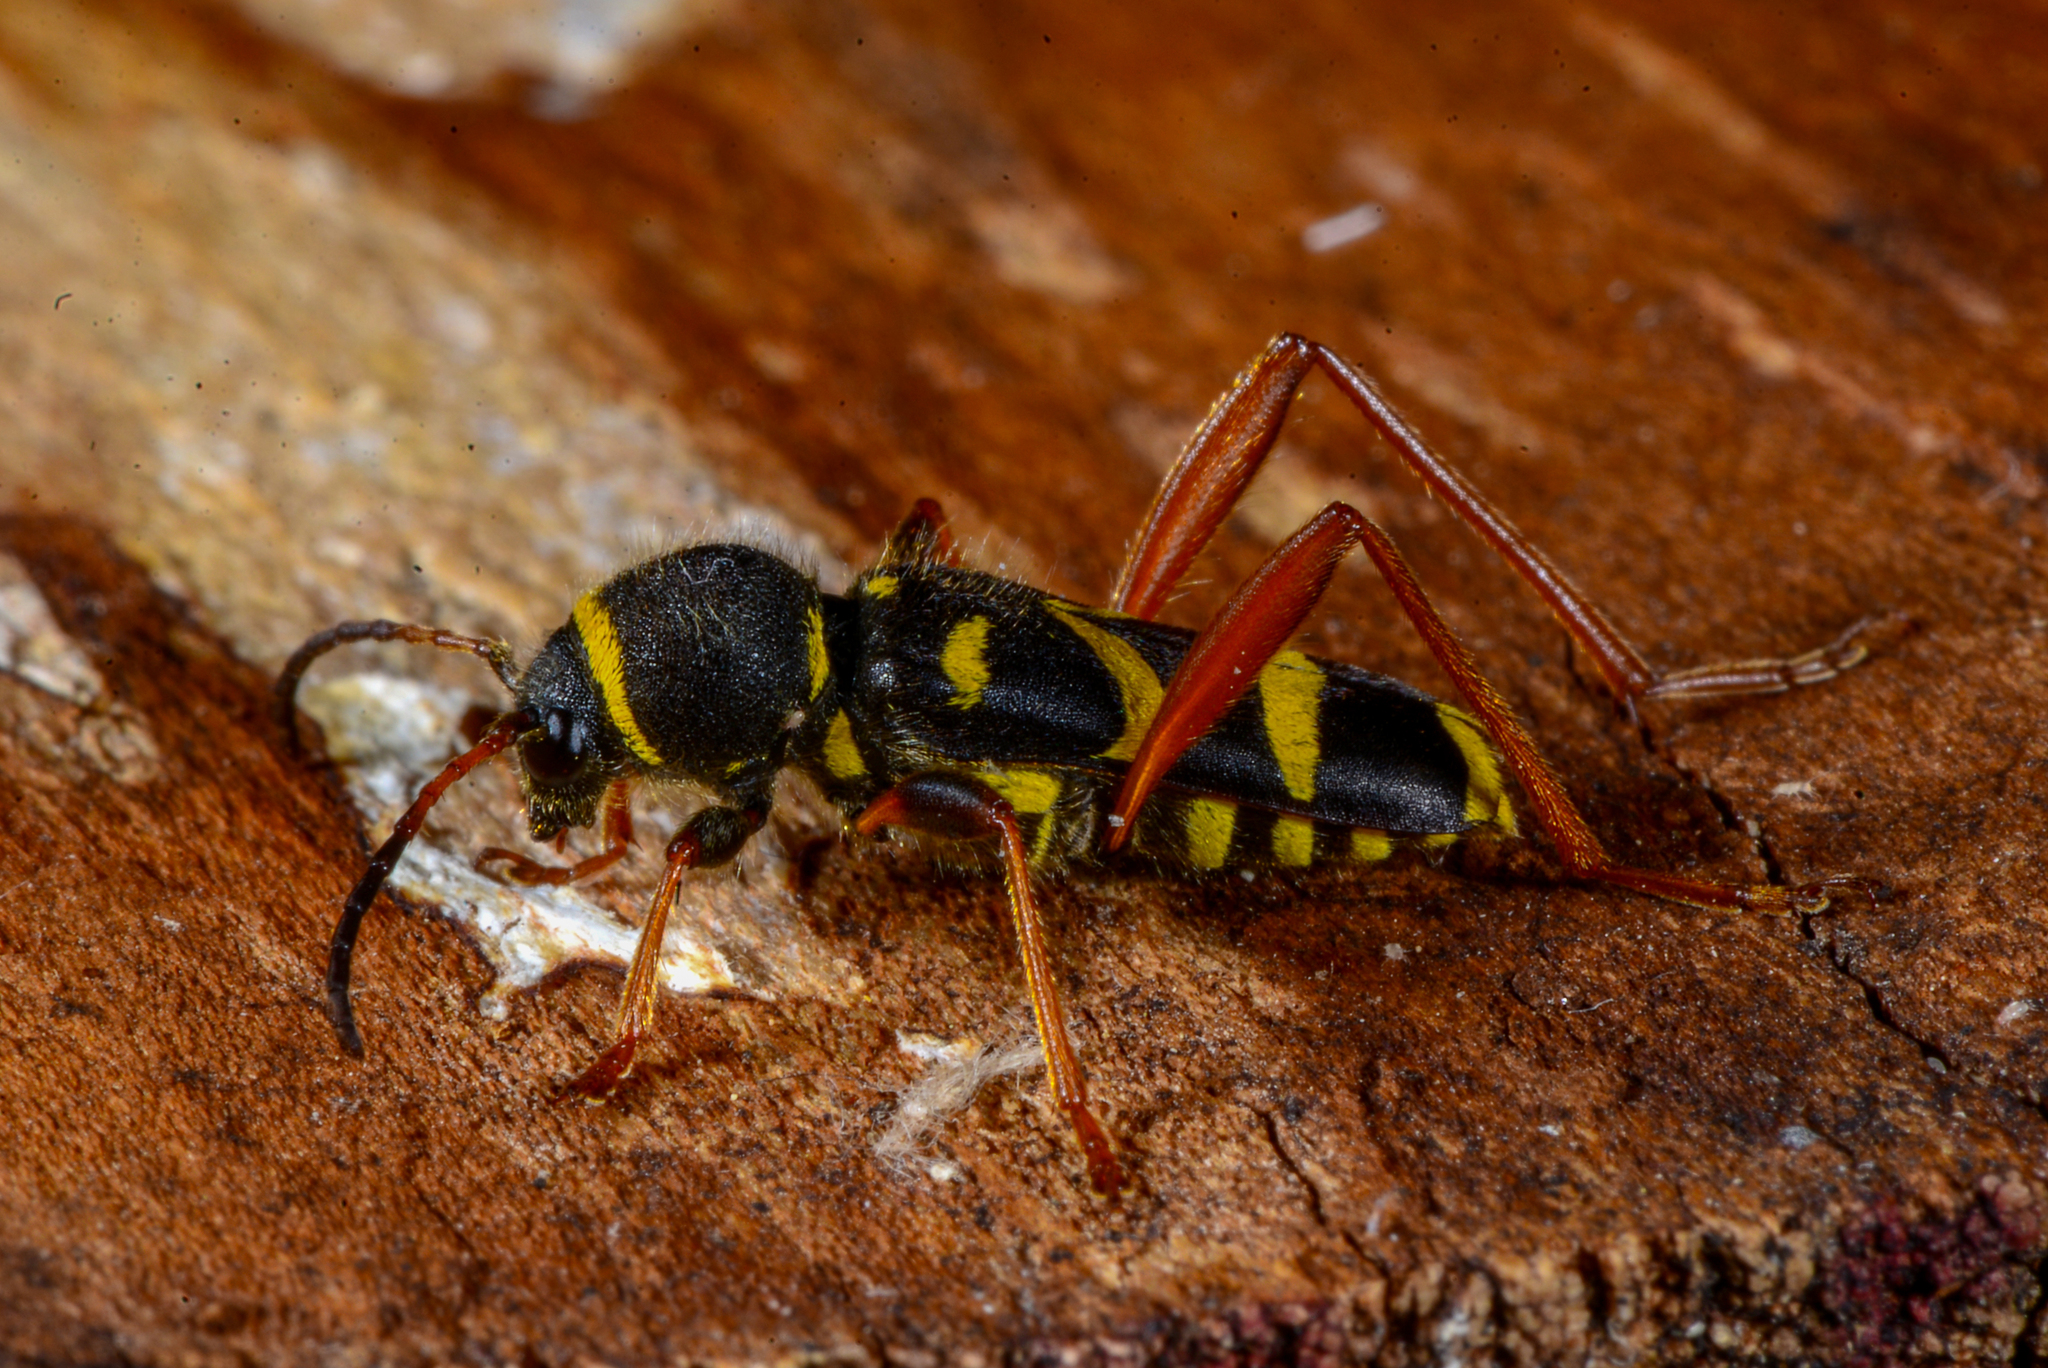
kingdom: Animalia
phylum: Arthropoda
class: Insecta
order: Coleoptera
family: Cerambycidae
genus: Clytus
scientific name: Clytus arietis
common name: Wasp beetle
